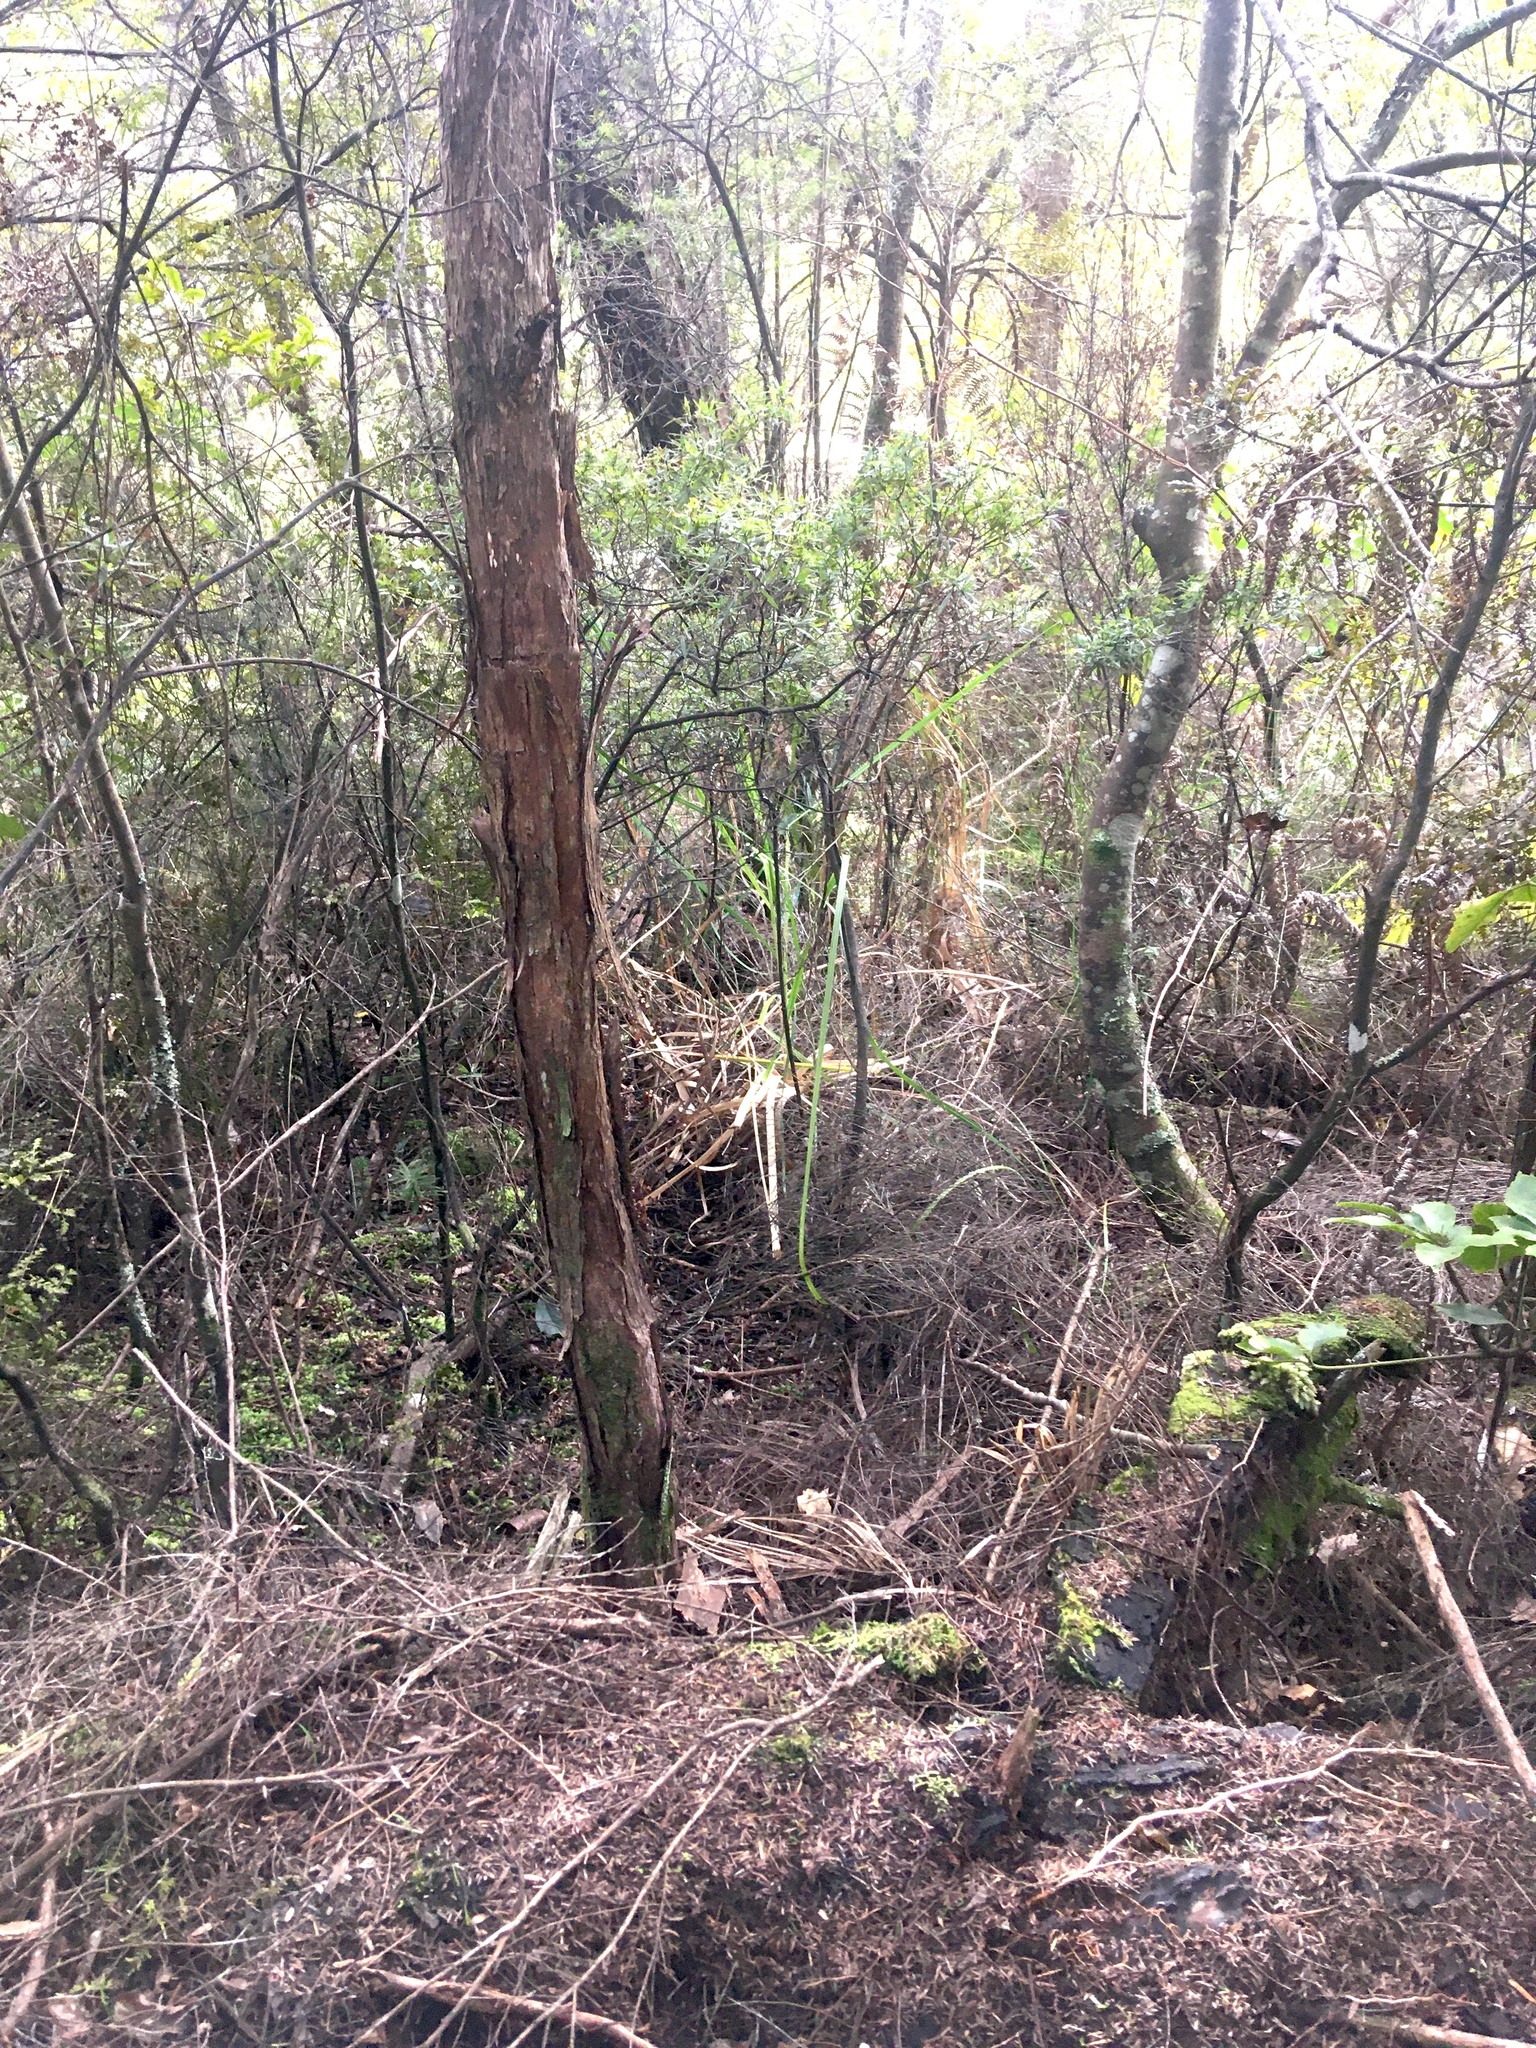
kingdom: Plantae
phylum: Tracheophyta
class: Liliopsida
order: Poales
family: Poaceae
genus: Cortaderia
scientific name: Cortaderia selloana
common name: Uruguayan pampas grass
